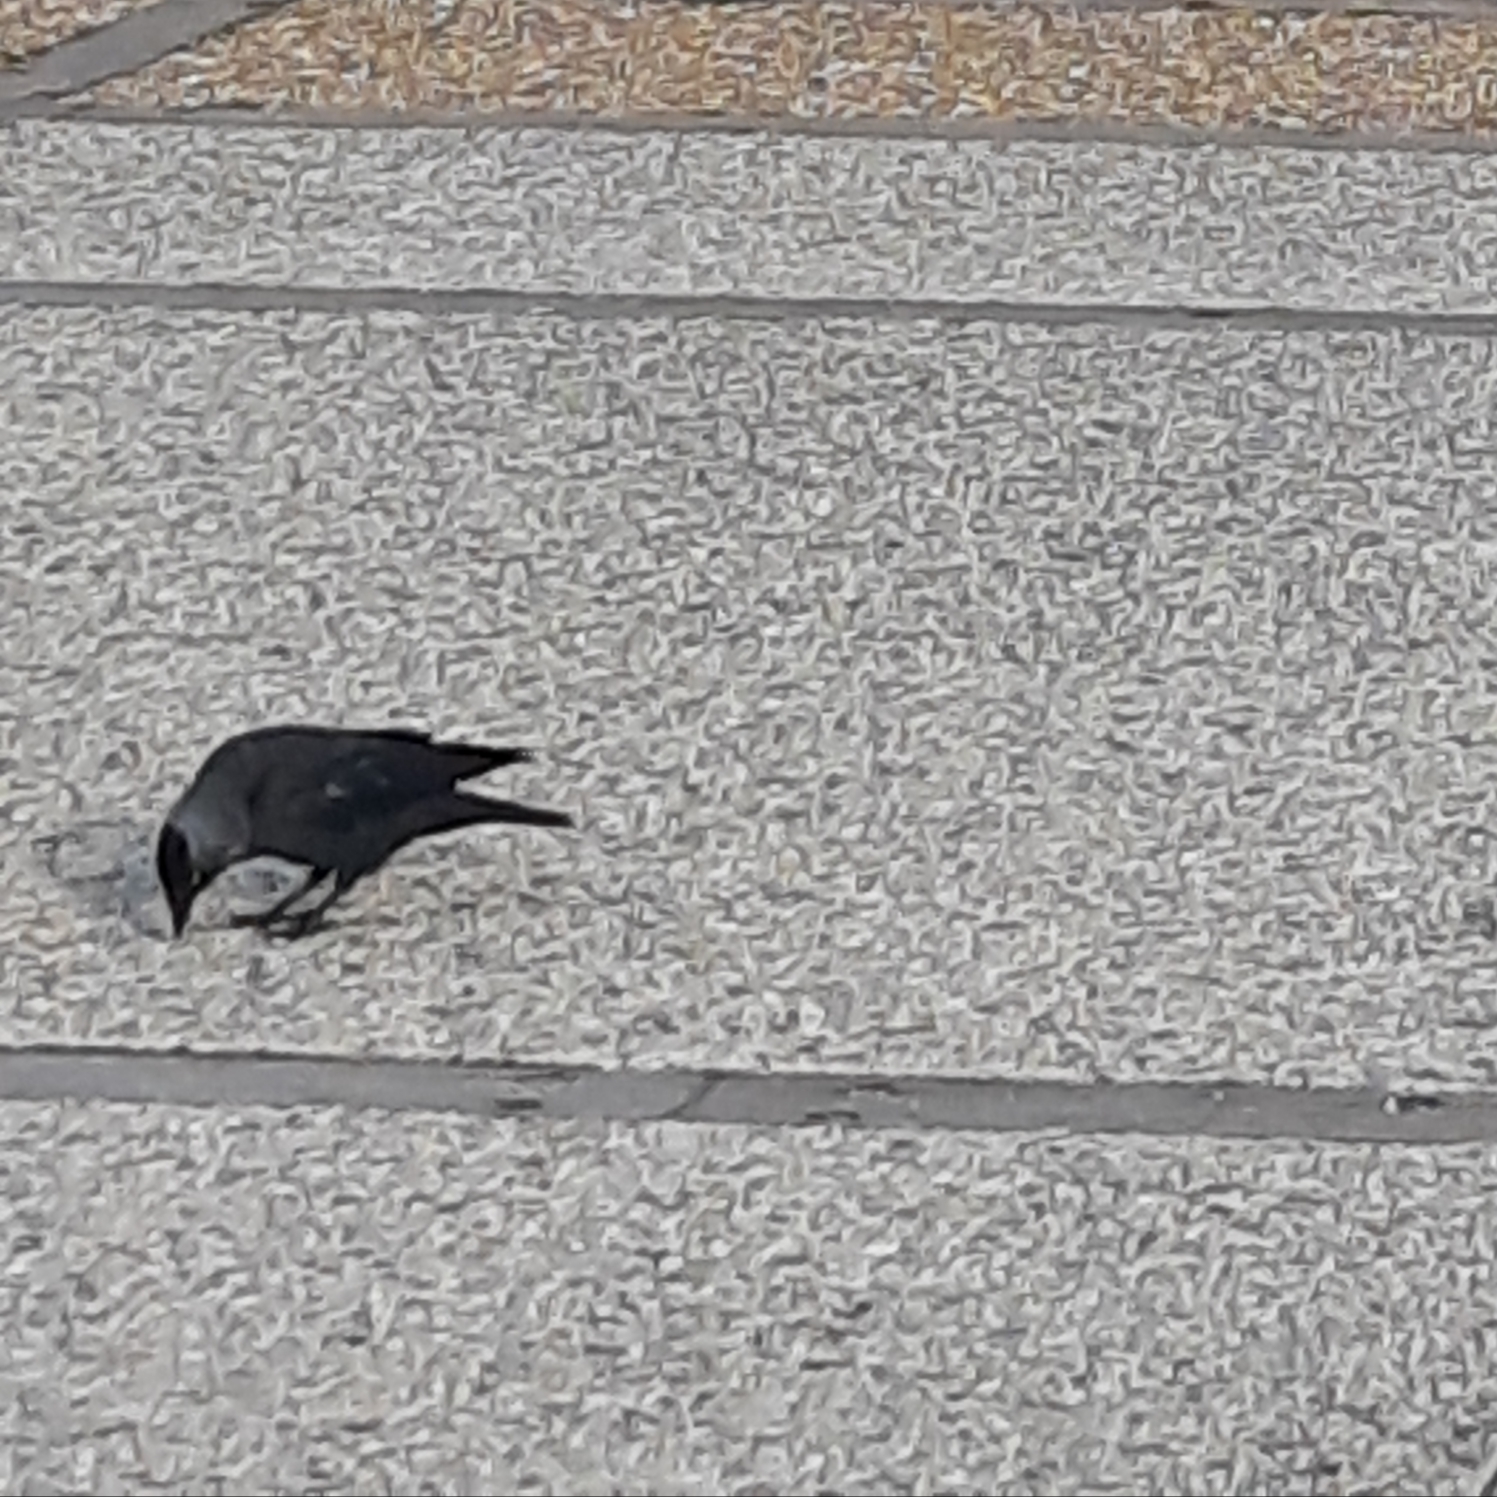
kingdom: Animalia
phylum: Chordata
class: Aves
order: Passeriformes
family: Corvidae
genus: Coloeus
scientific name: Coloeus monedula
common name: Western jackdaw
